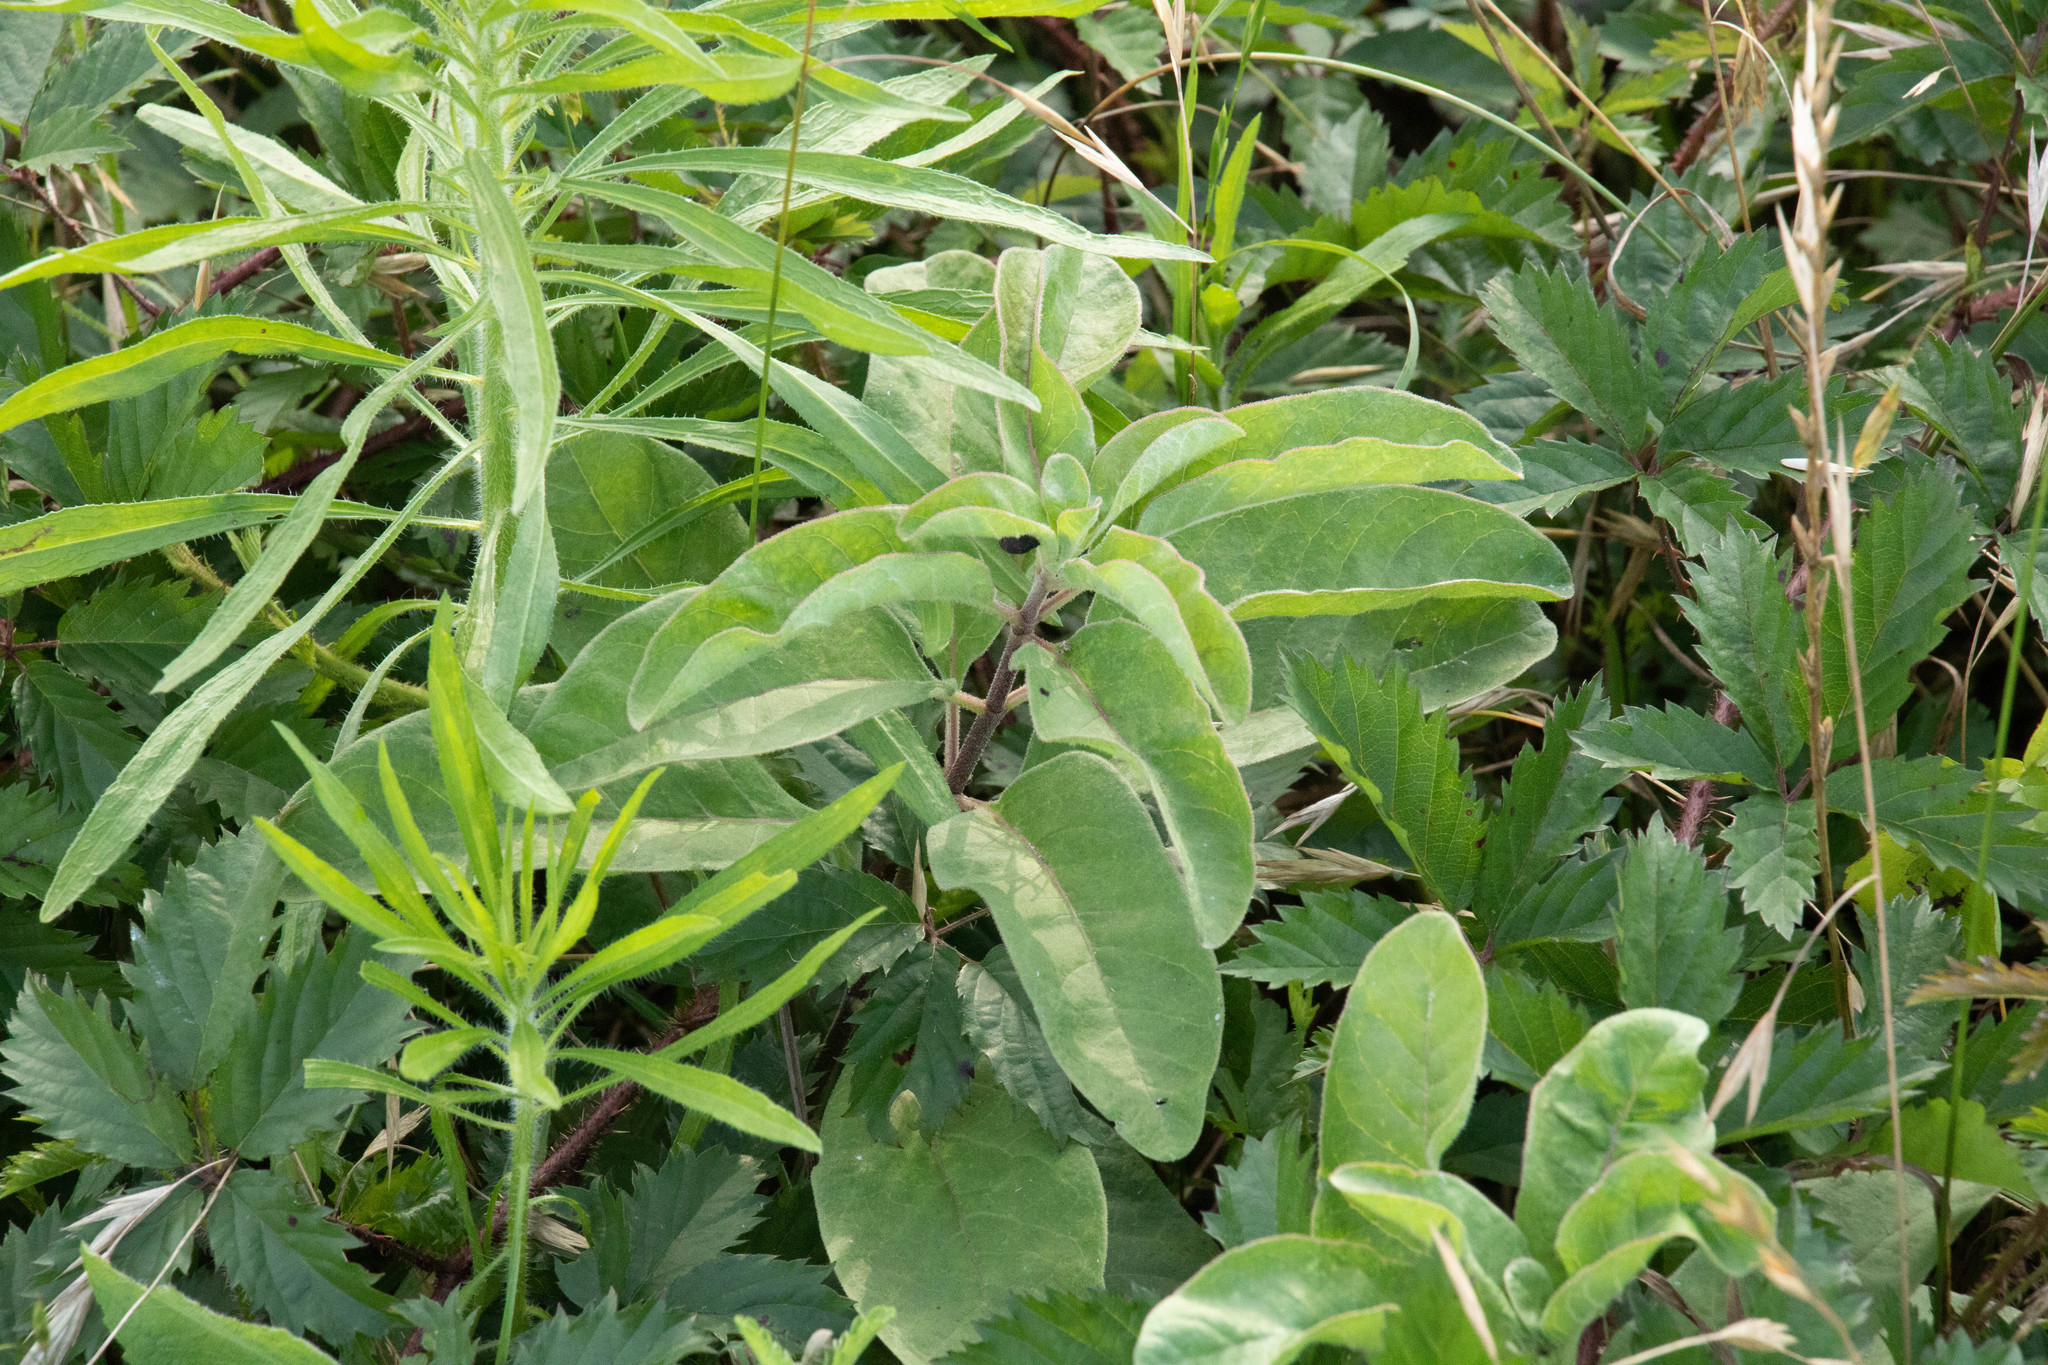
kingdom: Plantae
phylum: Tracheophyta
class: Magnoliopsida
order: Gentianales
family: Apocynaceae
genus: Asclepias
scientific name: Asclepias oenotheroides
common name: Zizotes milkweed
